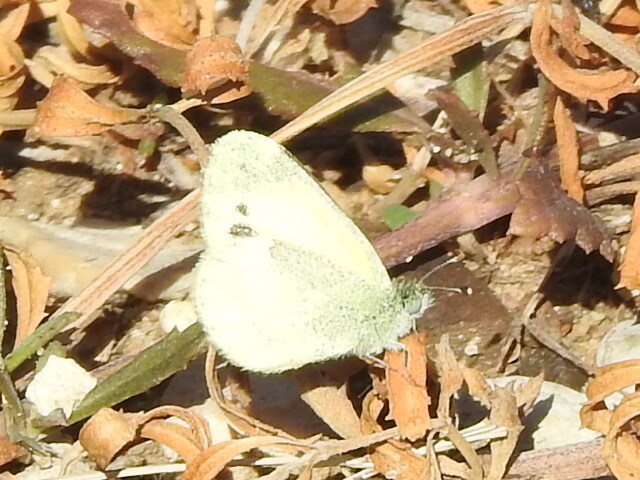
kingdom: Animalia
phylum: Arthropoda
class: Insecta
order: Lepidoptera
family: Pieridae
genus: Nathalis
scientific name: Nathalis iole
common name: Dainty sulphur
